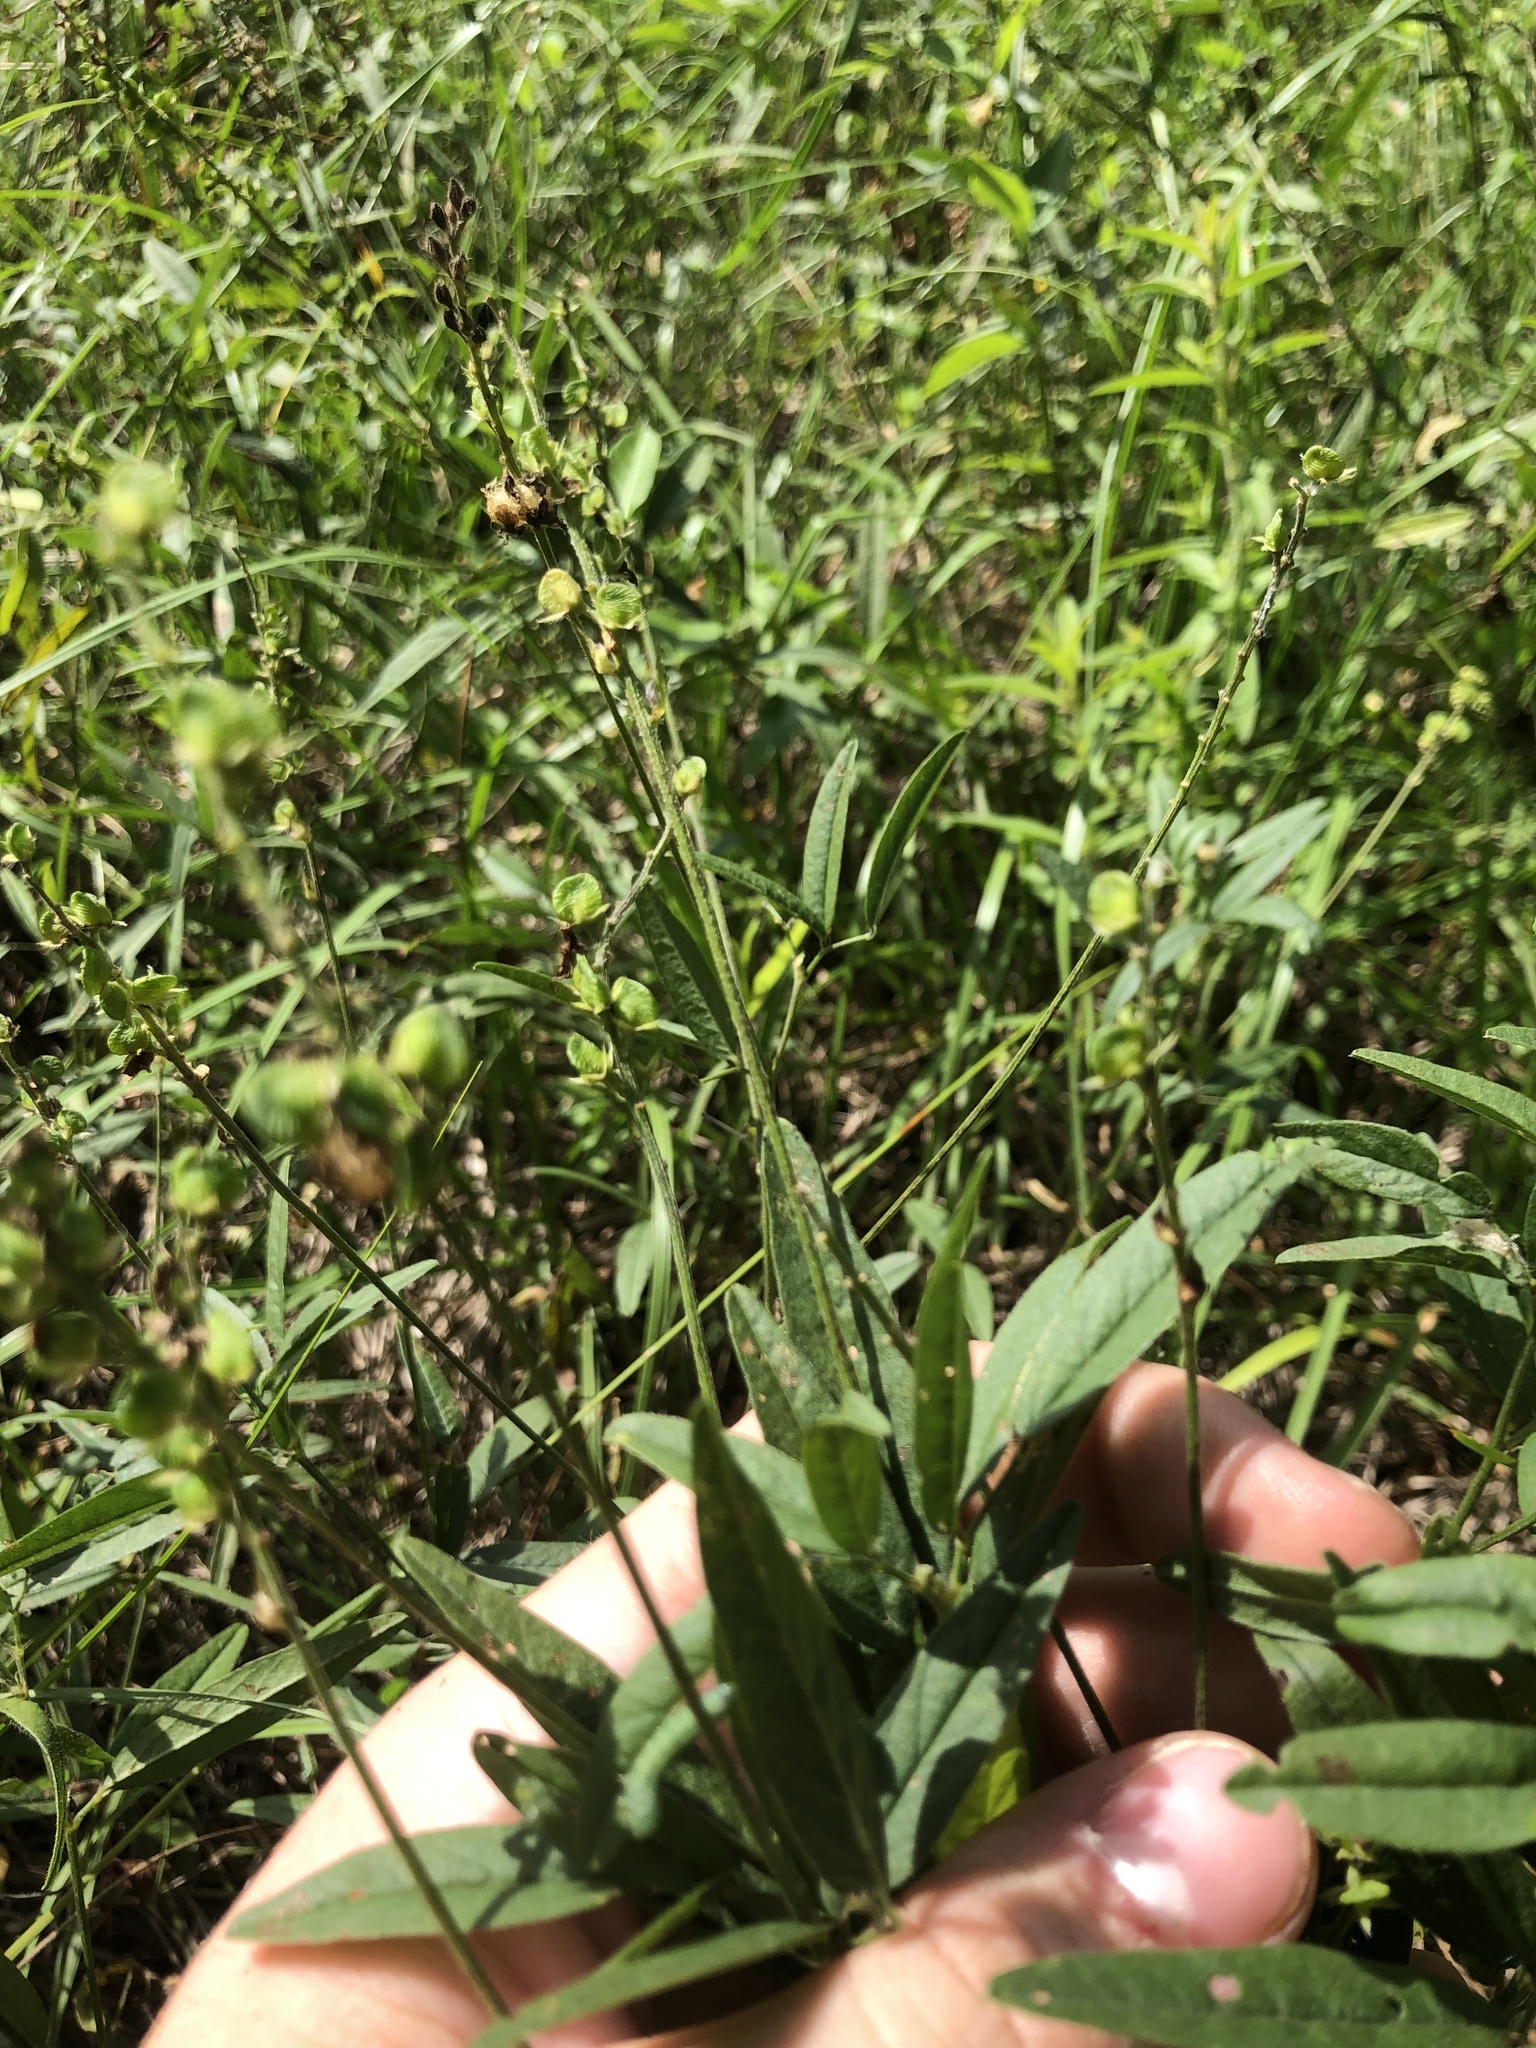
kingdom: Plantae
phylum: Tracheophyta
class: Magnoliopsida
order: Fabales
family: Fabaceae
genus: Orbexilum
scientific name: Orbexilum pedunculatum
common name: Sampson's snakeroot
